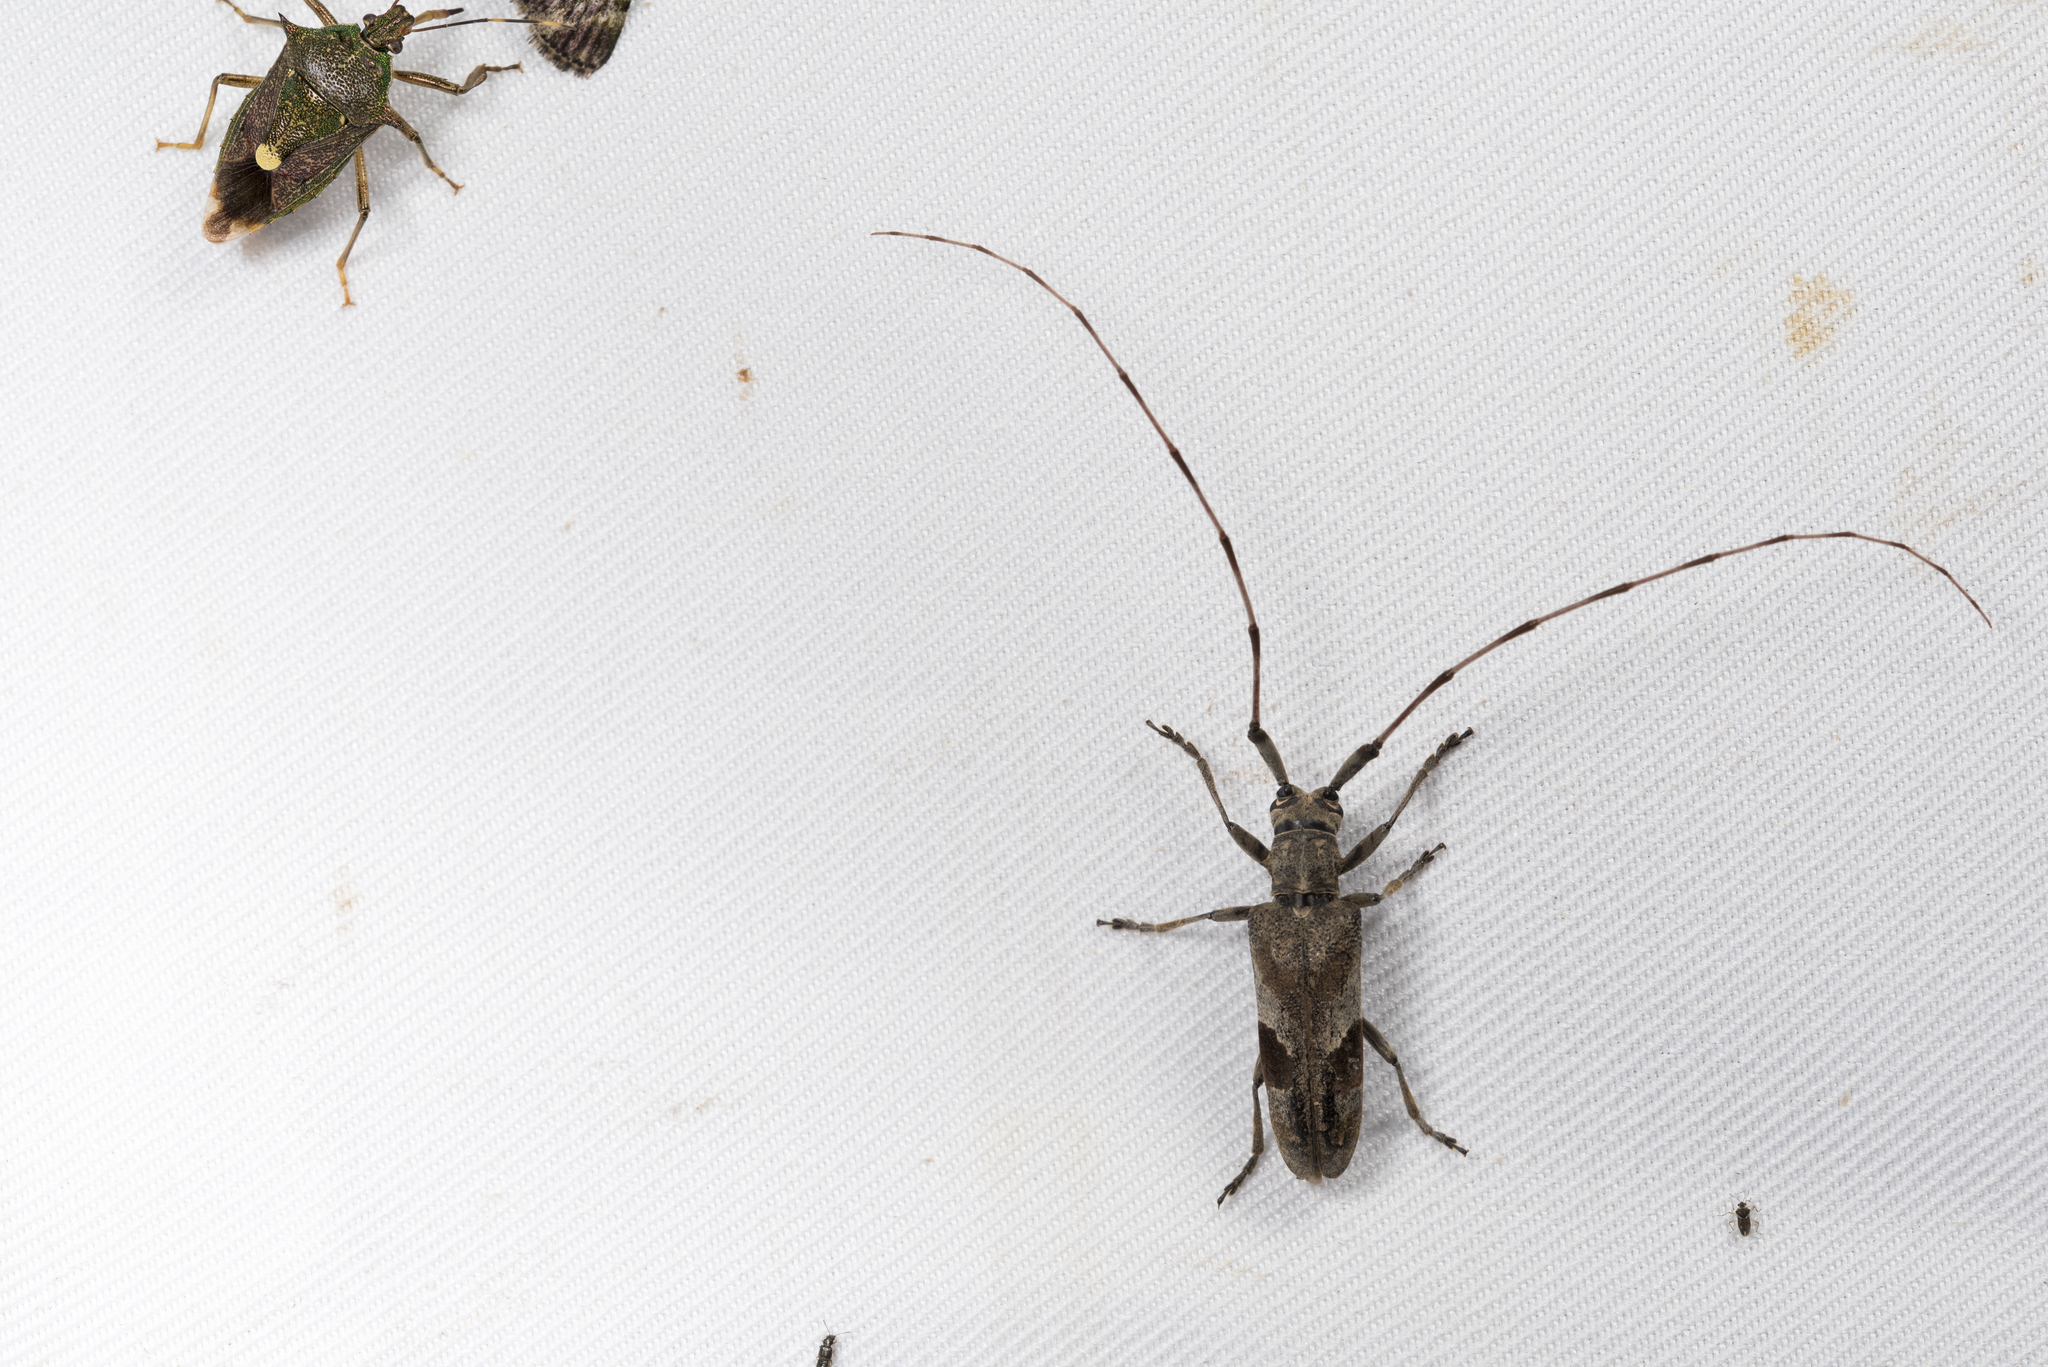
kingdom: Animalia
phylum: Arthropoda
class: Insecta
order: Coleoptera
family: Cerambycidae
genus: Uraecha
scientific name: Uraecha angusta
